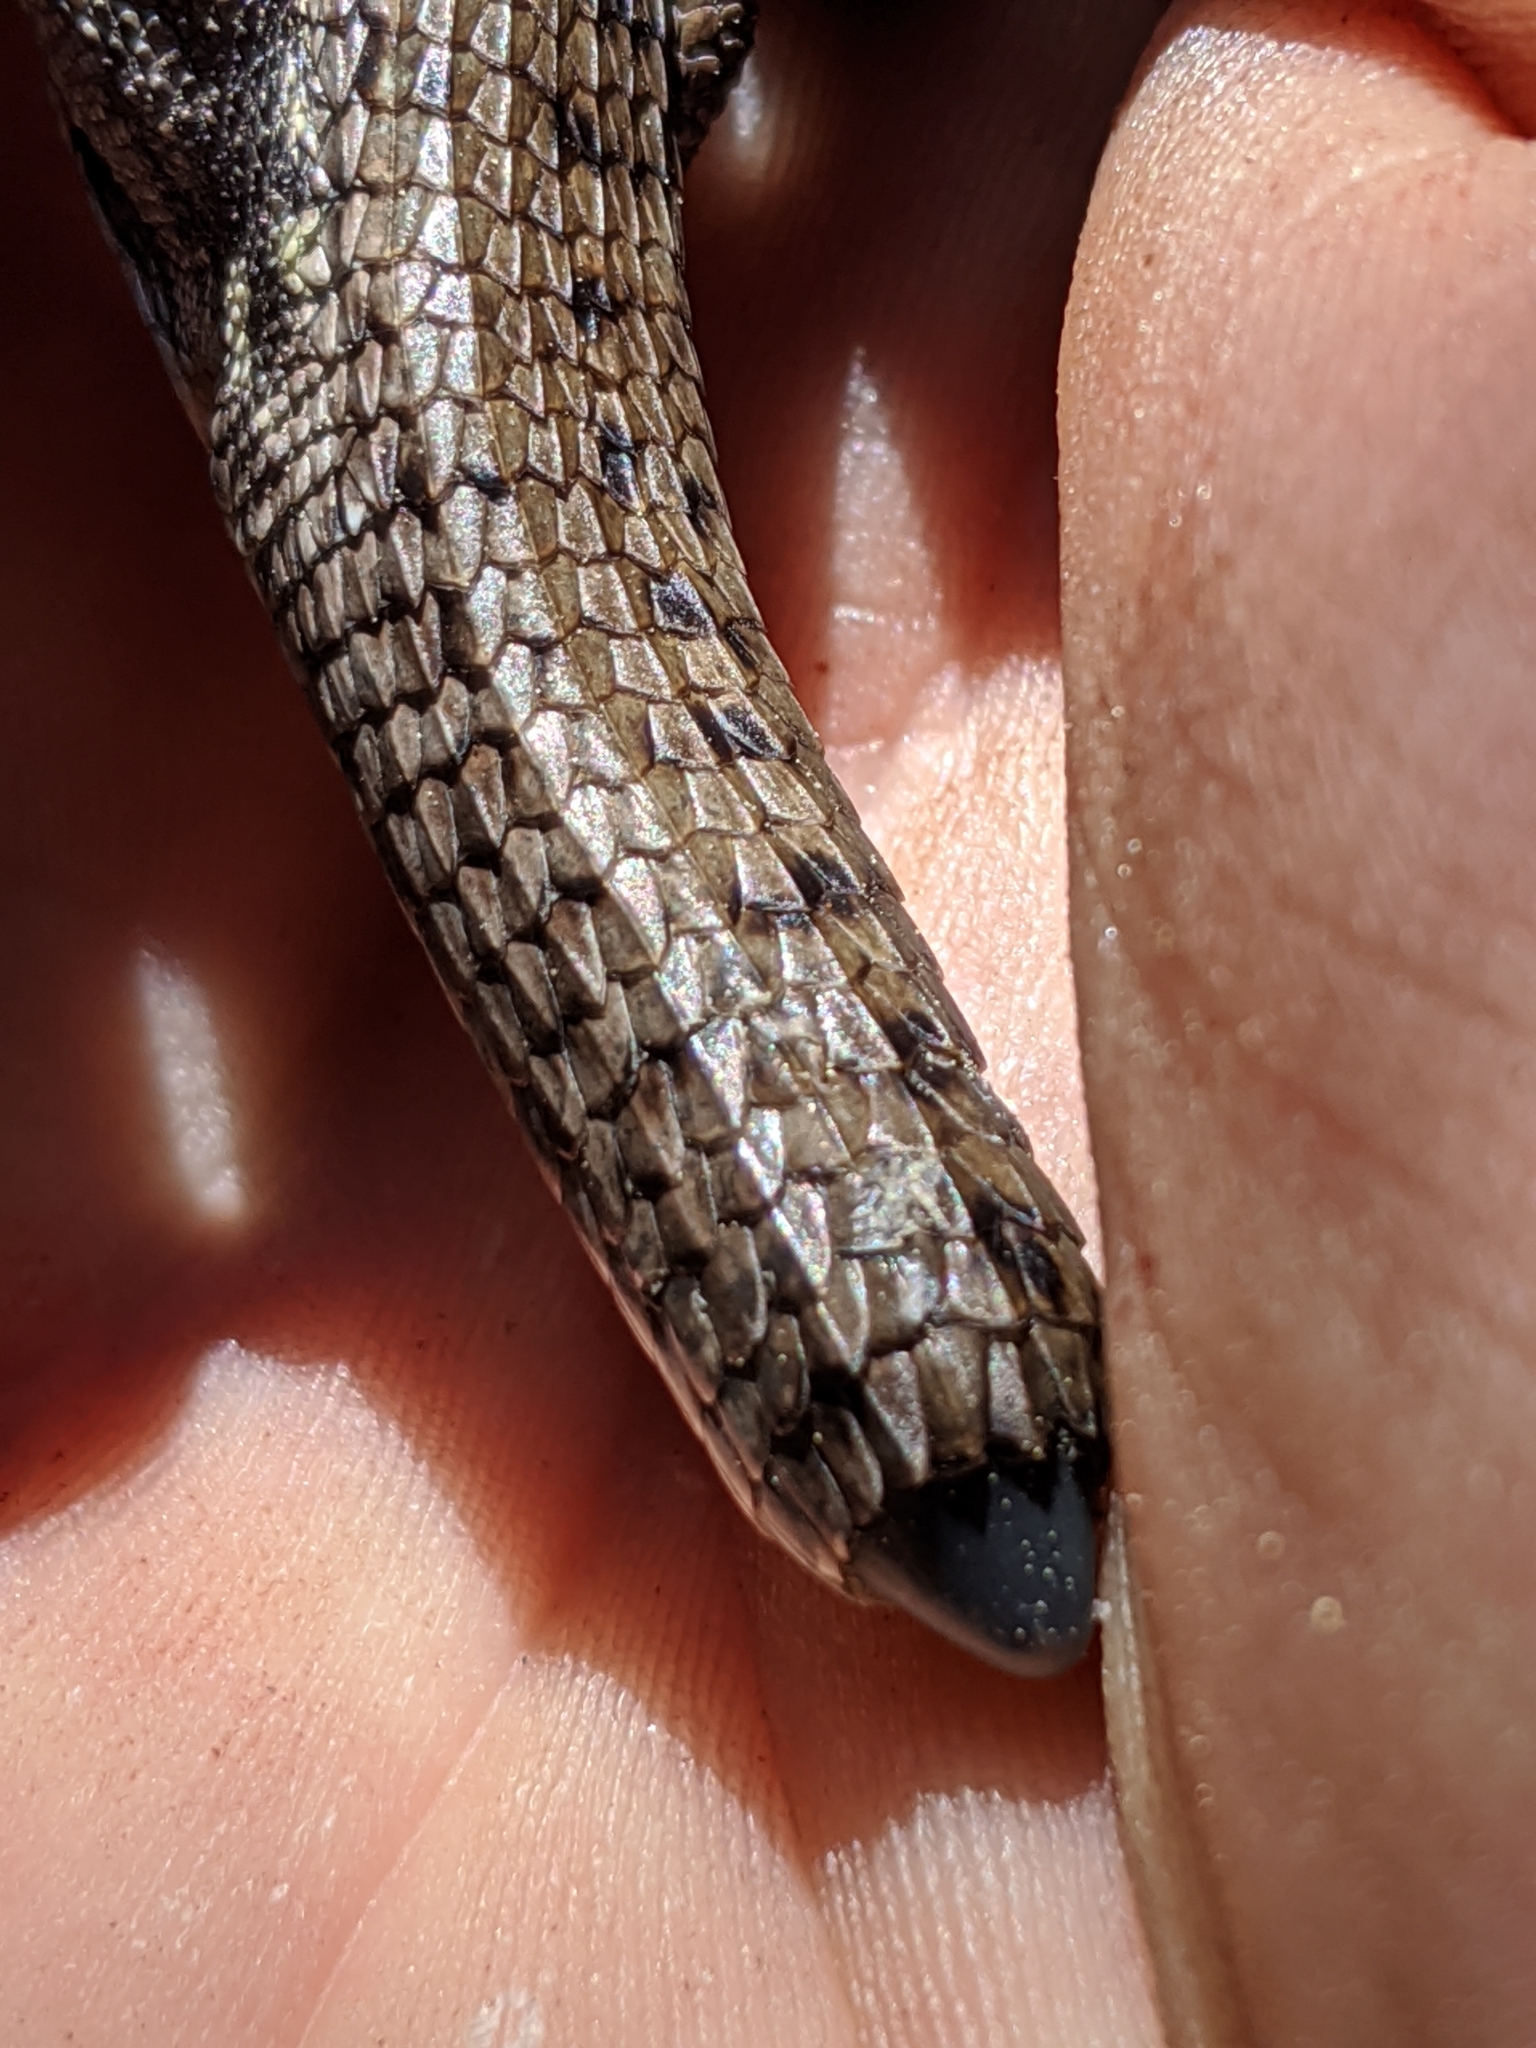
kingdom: Animalia
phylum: Chordata
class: Squamata
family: Anguidae
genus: Elgaria
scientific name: Elgaria coerulea
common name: Northern alligator lizard
